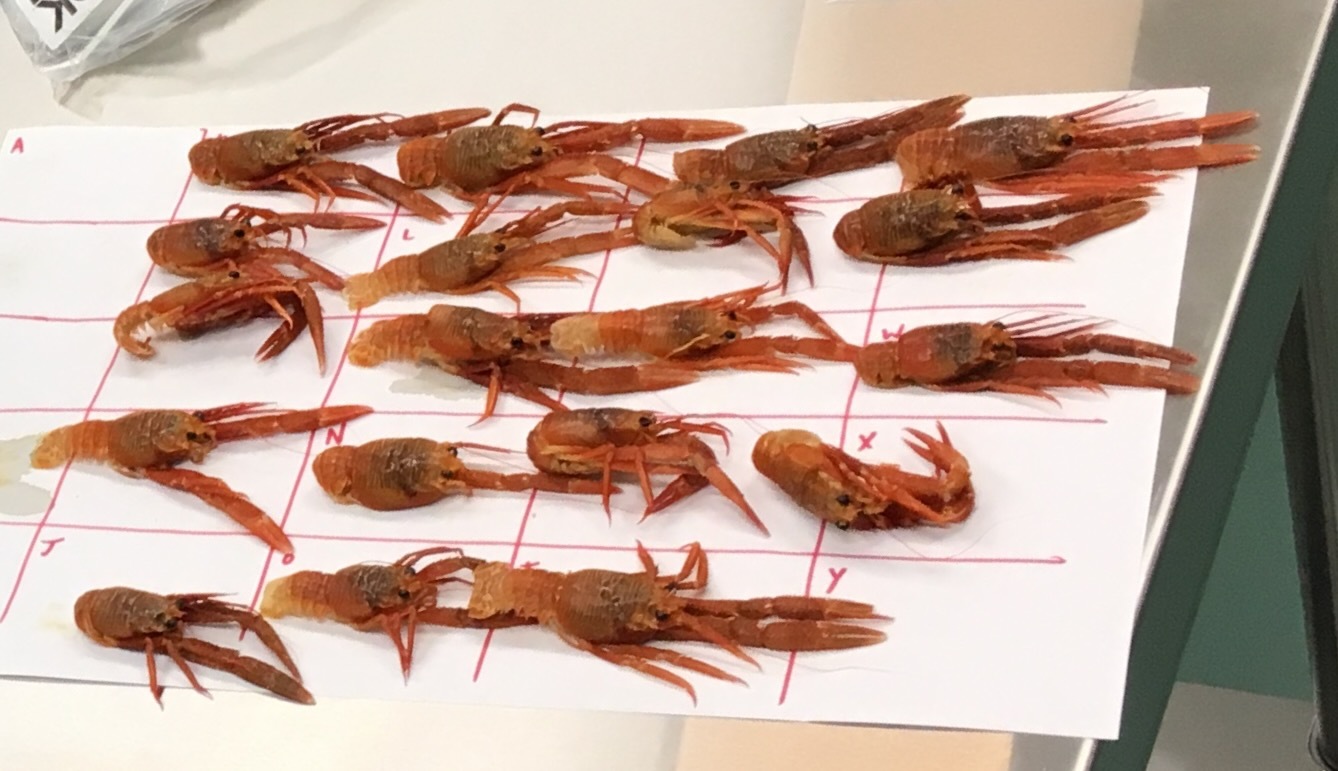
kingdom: Animalia
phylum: Arthropoda
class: Malacostraca
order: Decapoda
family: Munididae
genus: Grimothea
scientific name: Grimothea planipes
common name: Pelagic red crab
